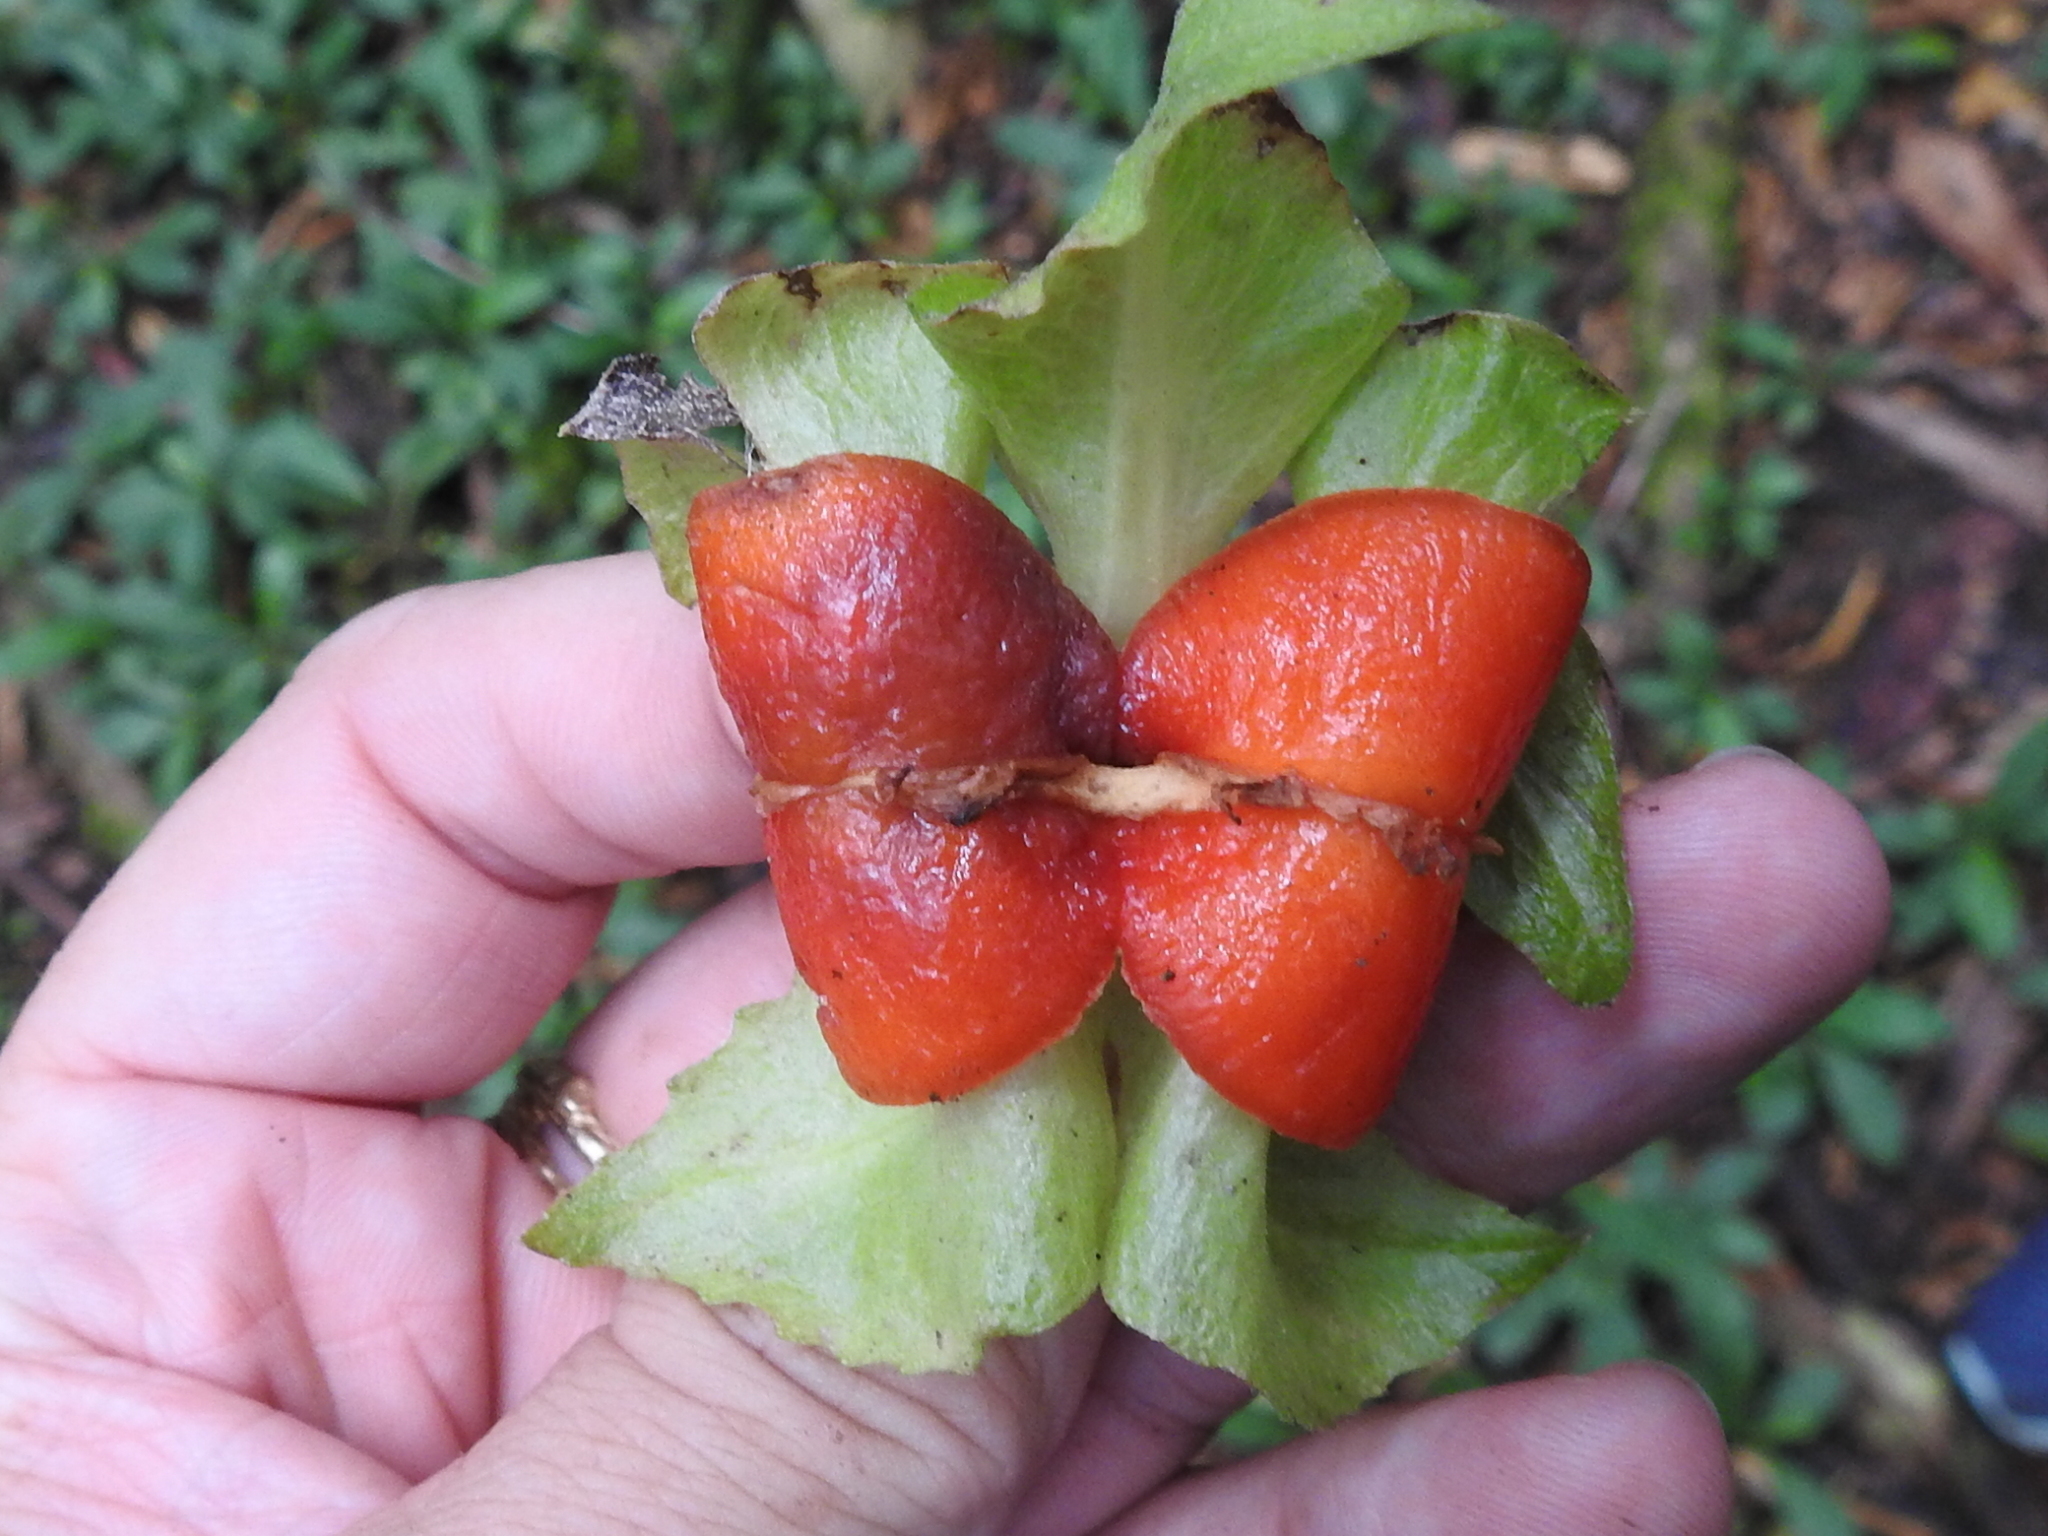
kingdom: Plantae
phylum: Tracheophyta
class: Magnoliopsida
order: Lamiales
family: Gesneriaceae
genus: Drymonia
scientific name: Drymonia alloplectoides
